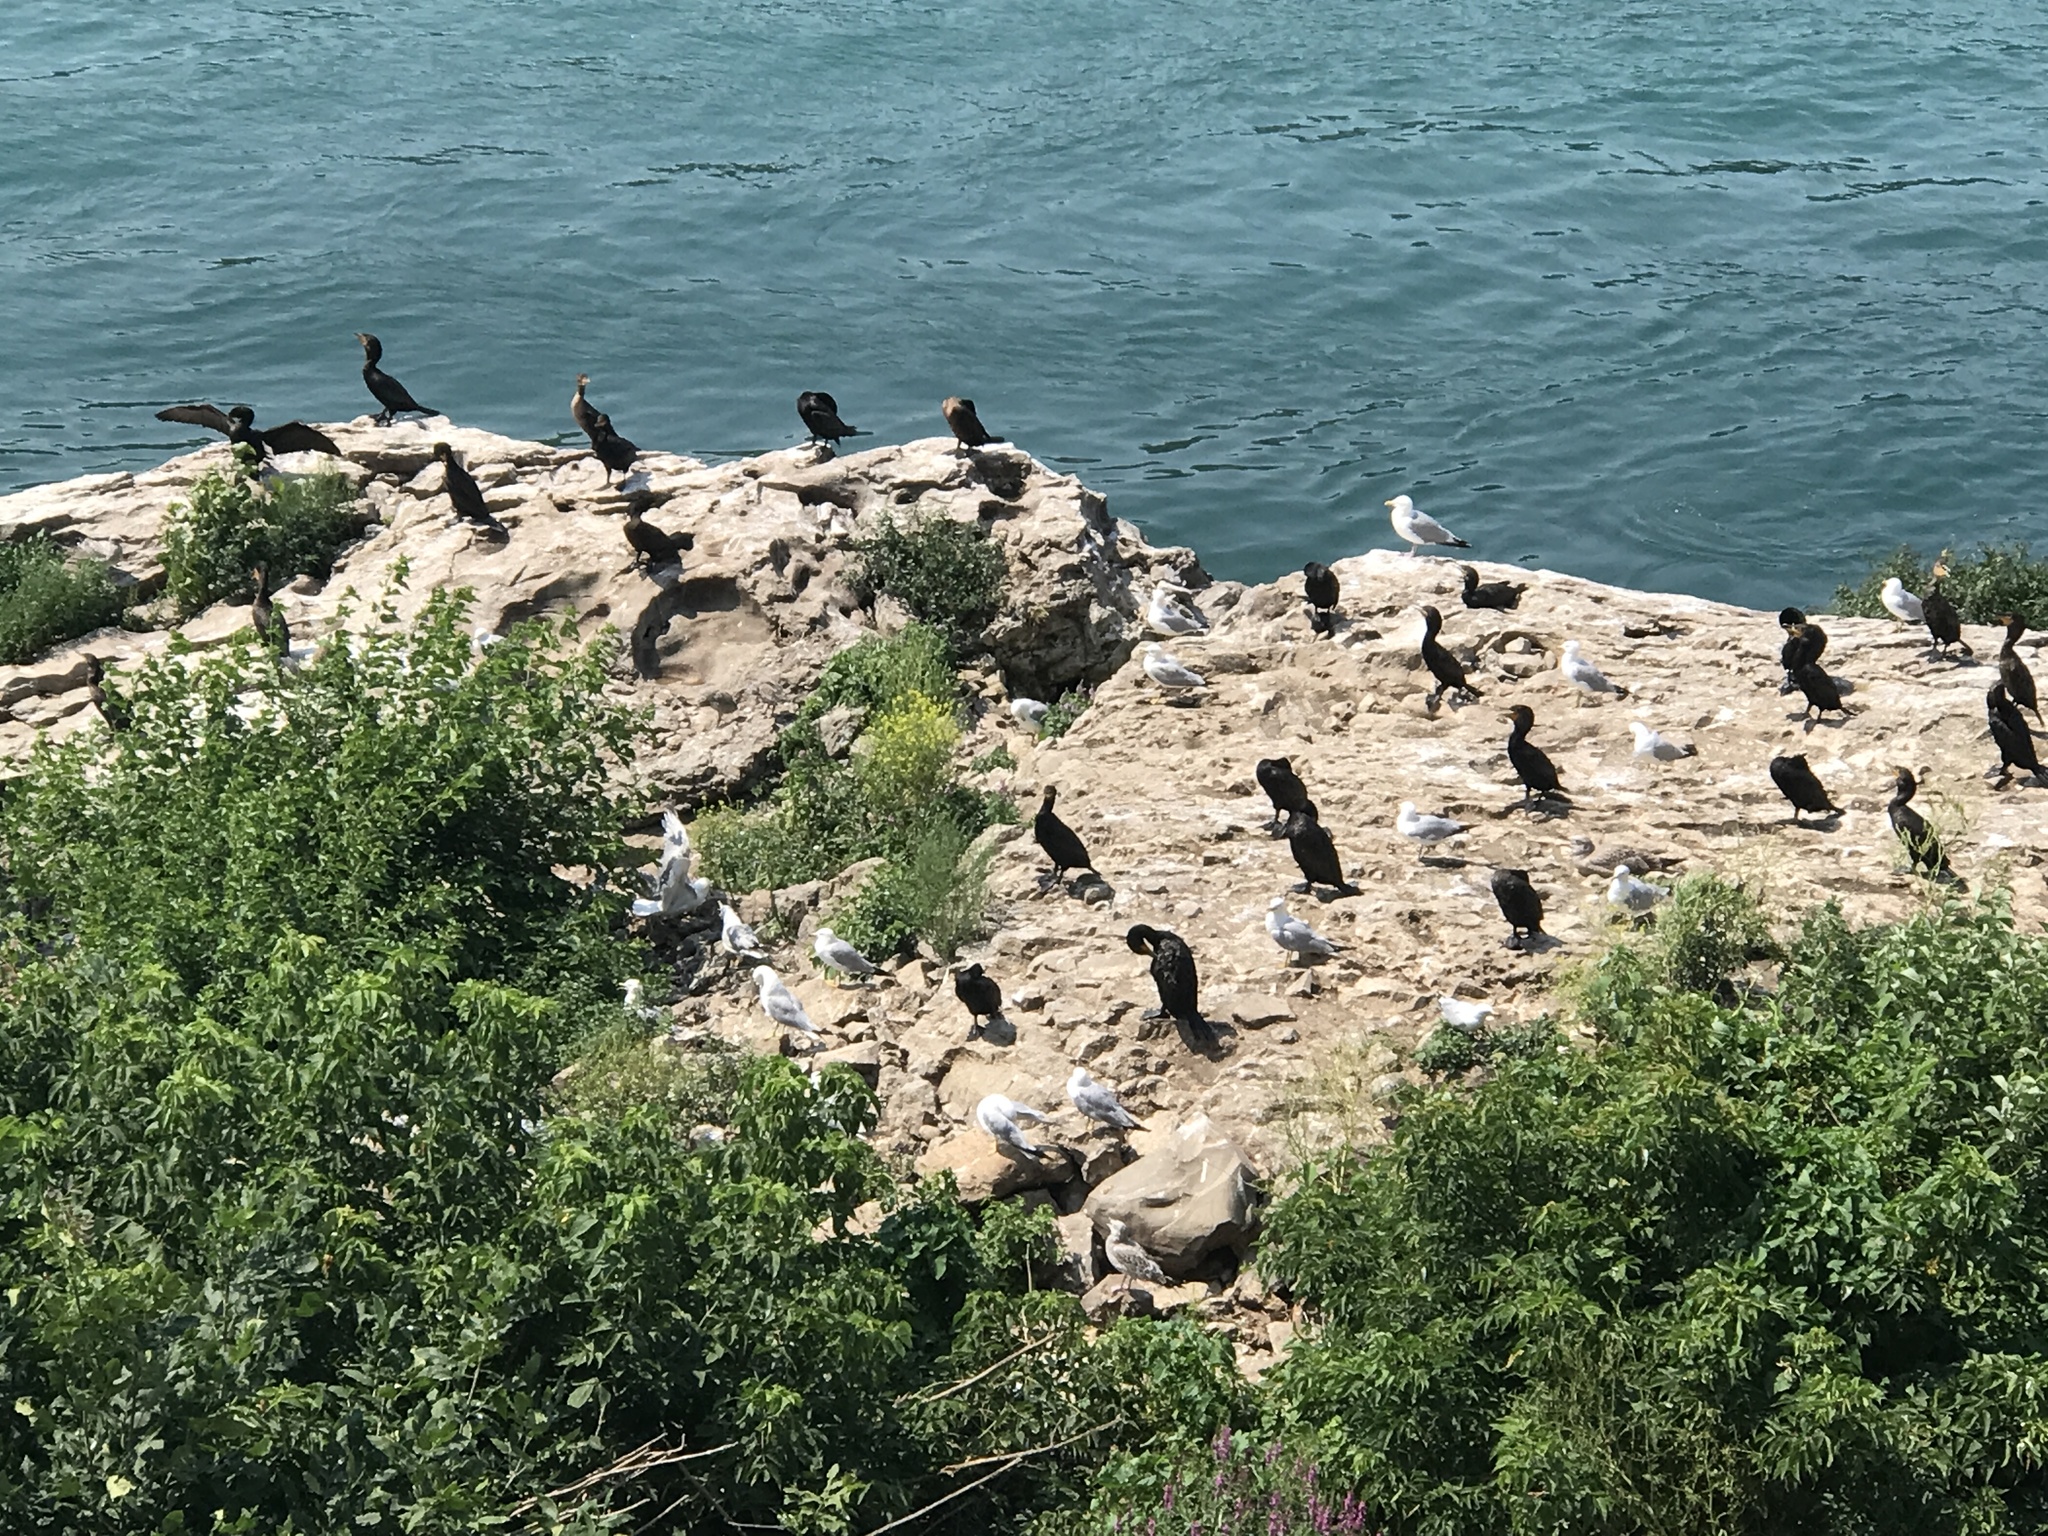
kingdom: Animalia
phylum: Chordata
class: Aves
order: Suliformes
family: Phalacrocoracidae
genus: Phalacrocorax
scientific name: Phalacrocorax auritus
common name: Double-crested cormorant
